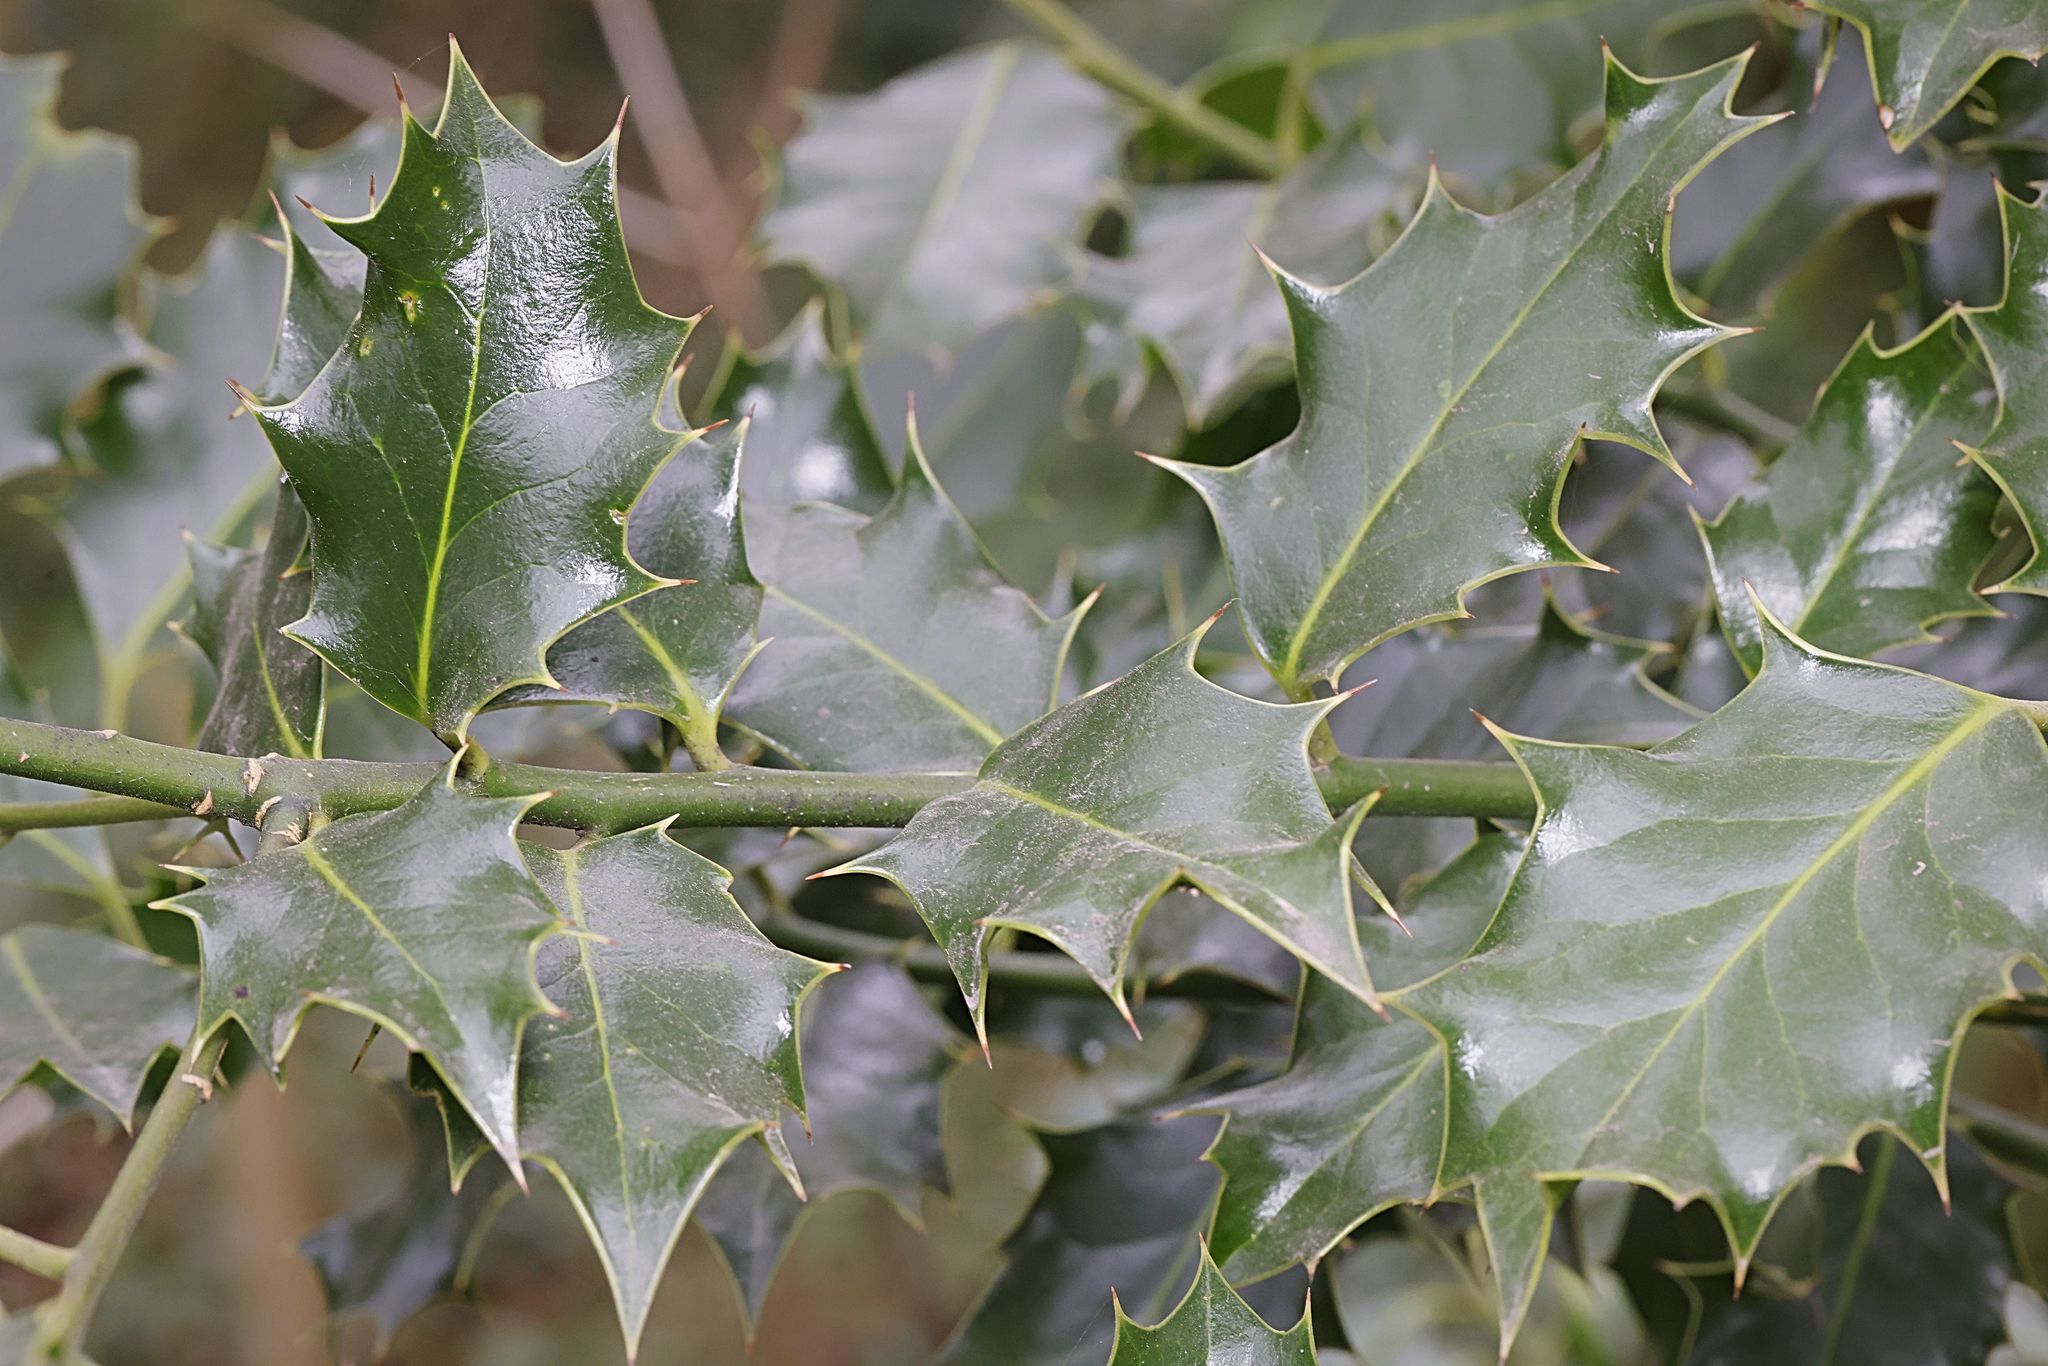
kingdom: Plantae
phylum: Tracheophyta
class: Magnoliopsida
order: Aquifoliales
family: Aquifoliaceae
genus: Ilex
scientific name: Ilex aquifolium
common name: English holly
